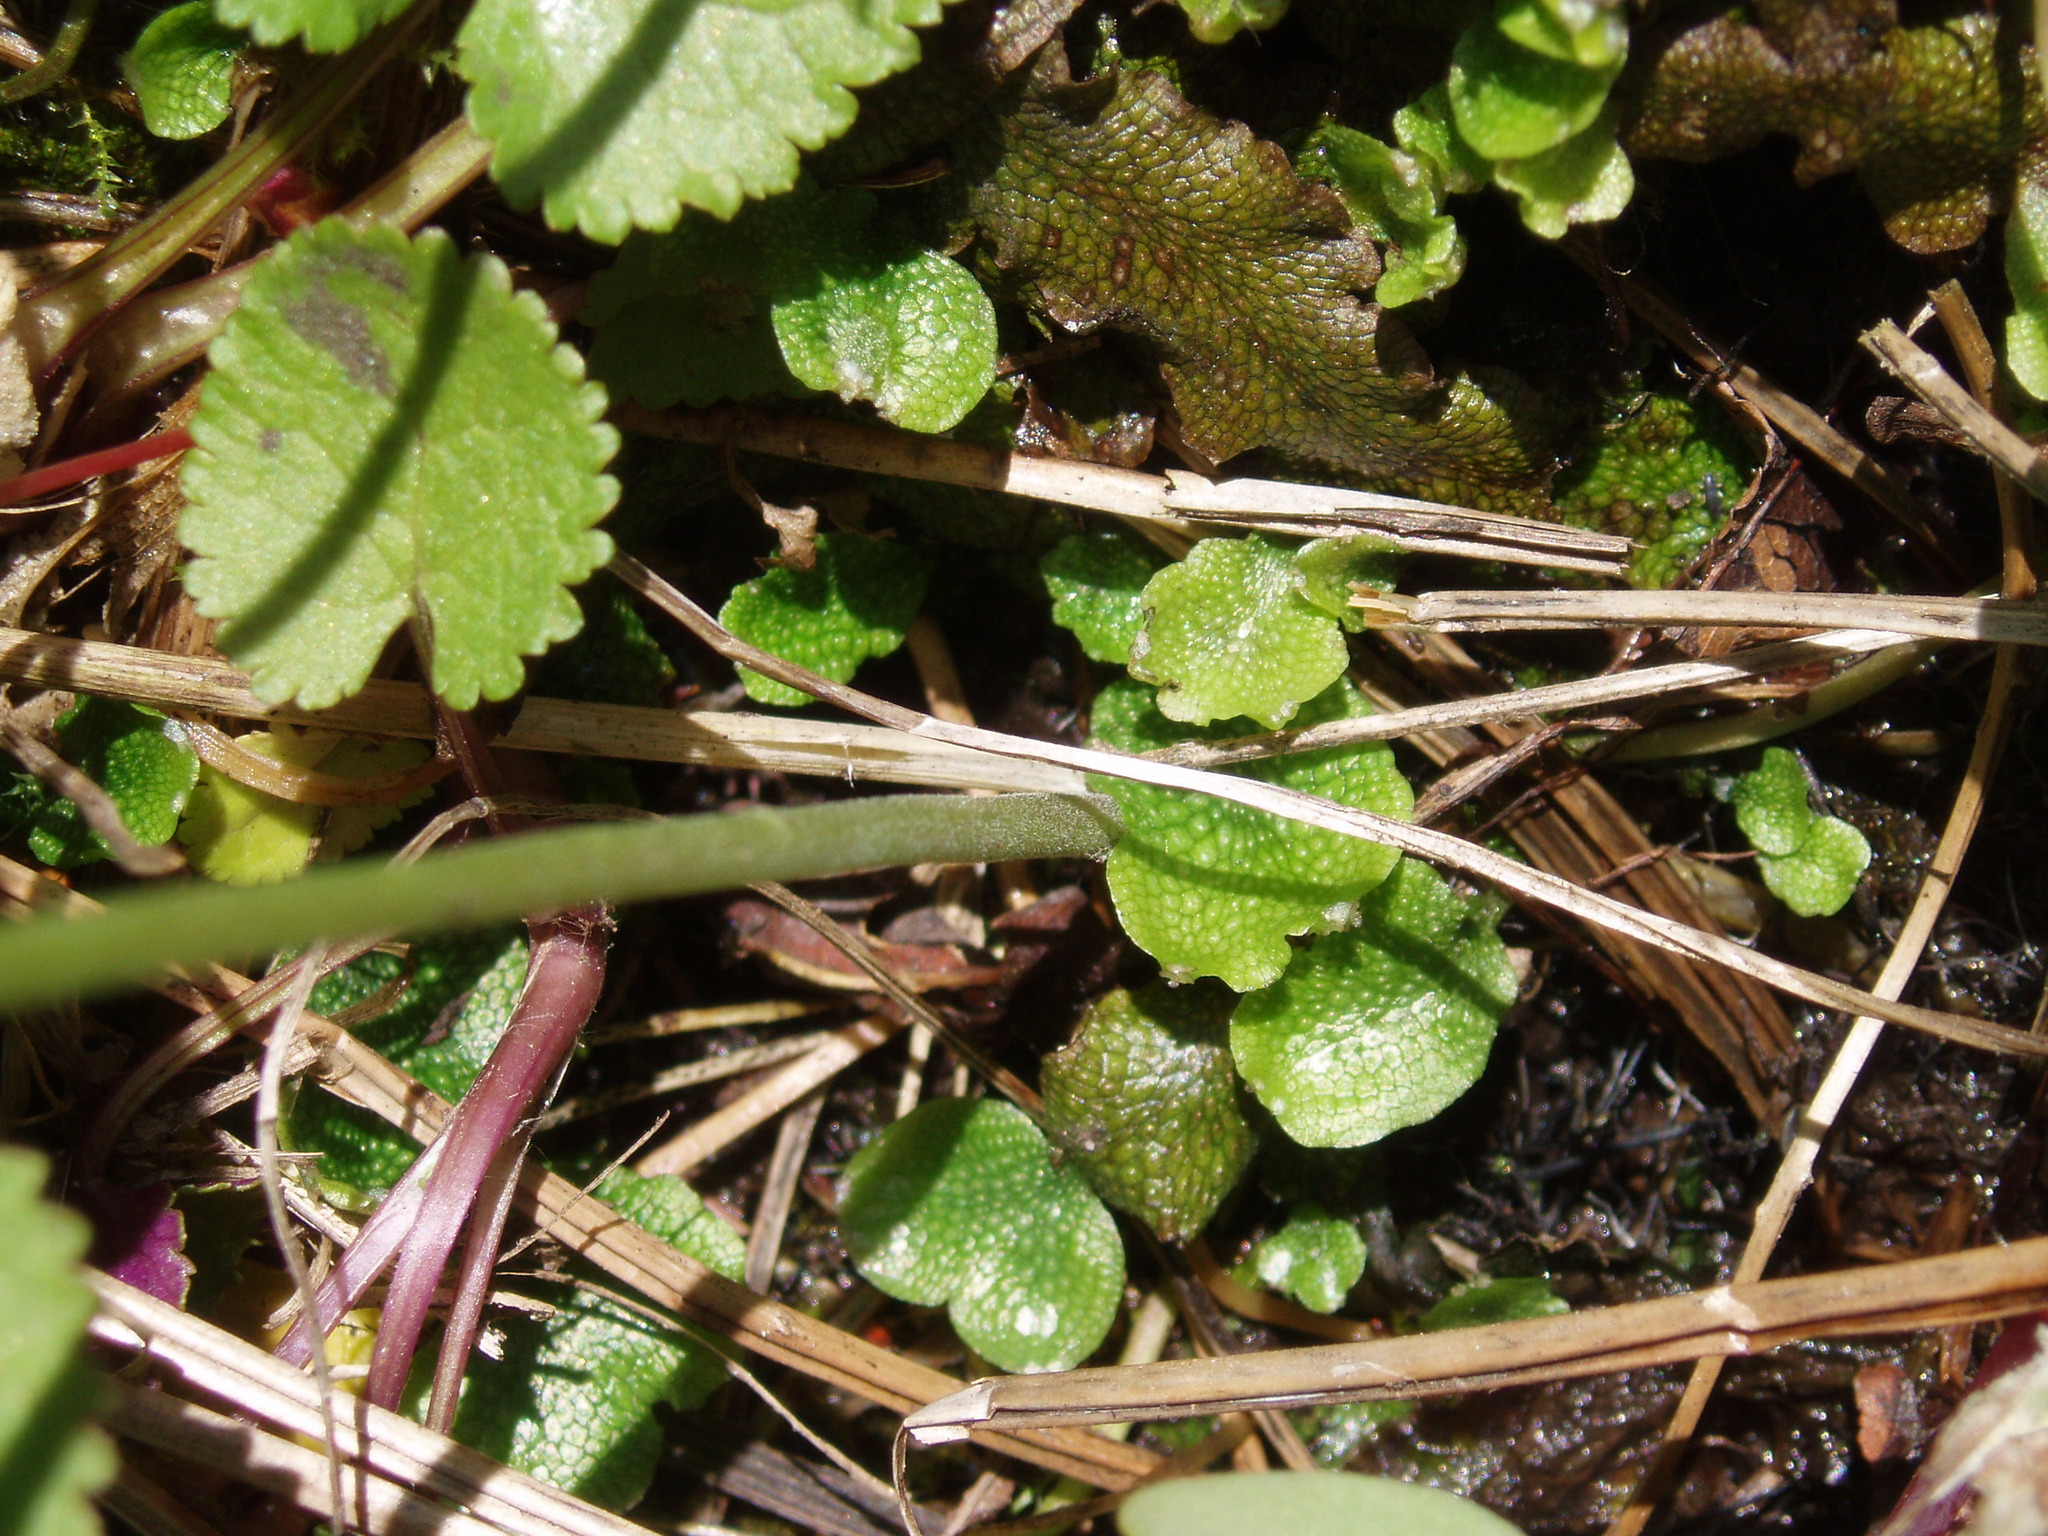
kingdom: Plantae
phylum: Marchantiophyta
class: Marchantiopsida
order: Marchantiales
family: Conocephalaceae
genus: Conocephalum
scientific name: Conocephalum salebrosum
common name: Cat-tongue liverwort
